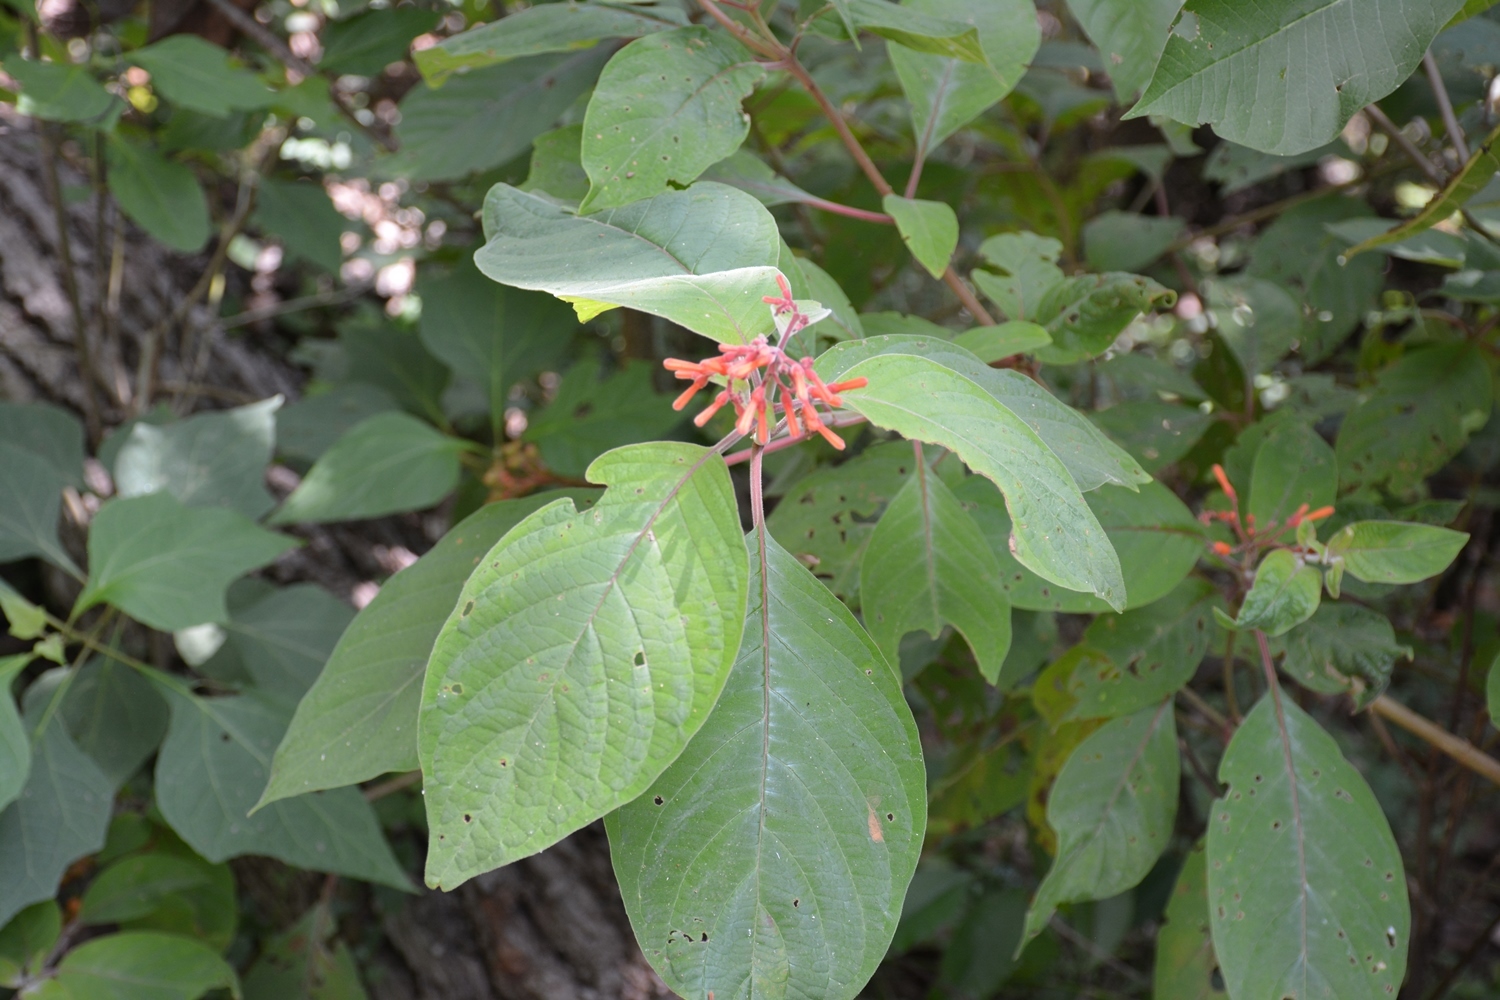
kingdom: Plantae
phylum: Tracheophyta
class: Magnoliopsida
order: Gentianales
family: Rubiaceae
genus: Hamelia
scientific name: Hamelia patens
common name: Redhead
